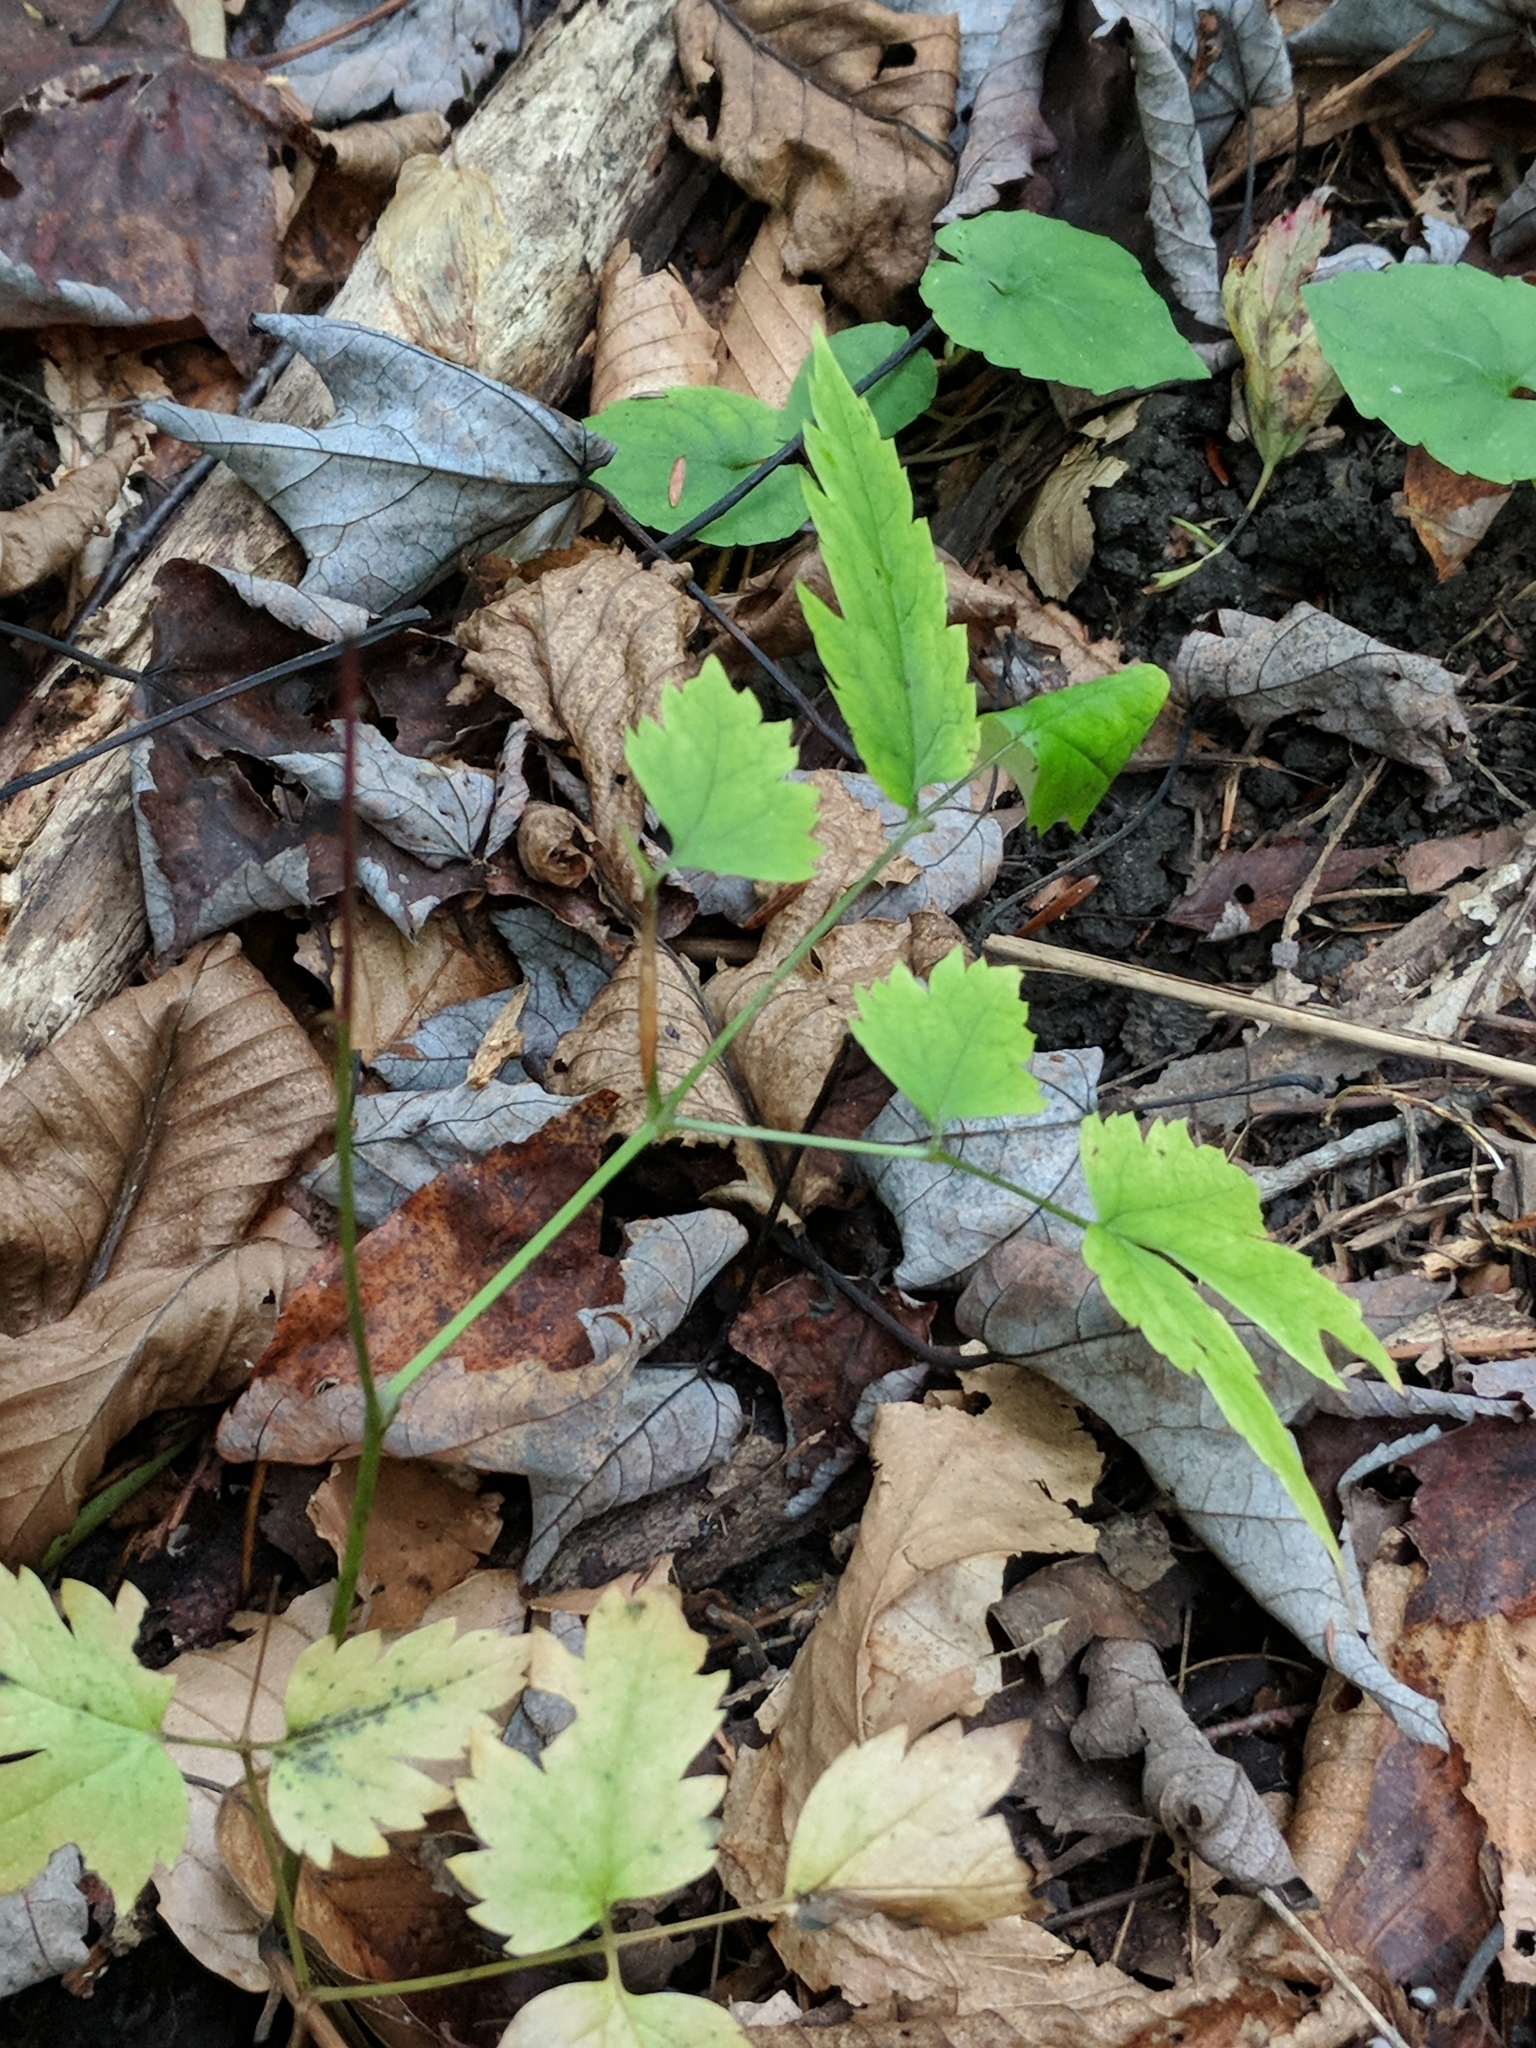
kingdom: Plantae
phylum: Tracheophyta
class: Magnoliopsida
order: Ranunculales
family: Ranunculaceae
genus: Actaea
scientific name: Actaea pachypoda
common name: Doll's-eyes
